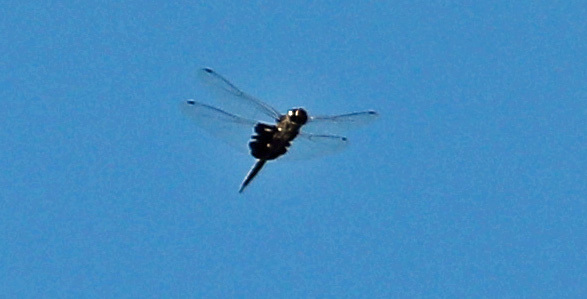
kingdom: Animalia
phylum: Arthropoda
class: Insecta
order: Odonata
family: Libellulidae
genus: Tramea
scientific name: Tramea lacerata
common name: Black saddlebags
